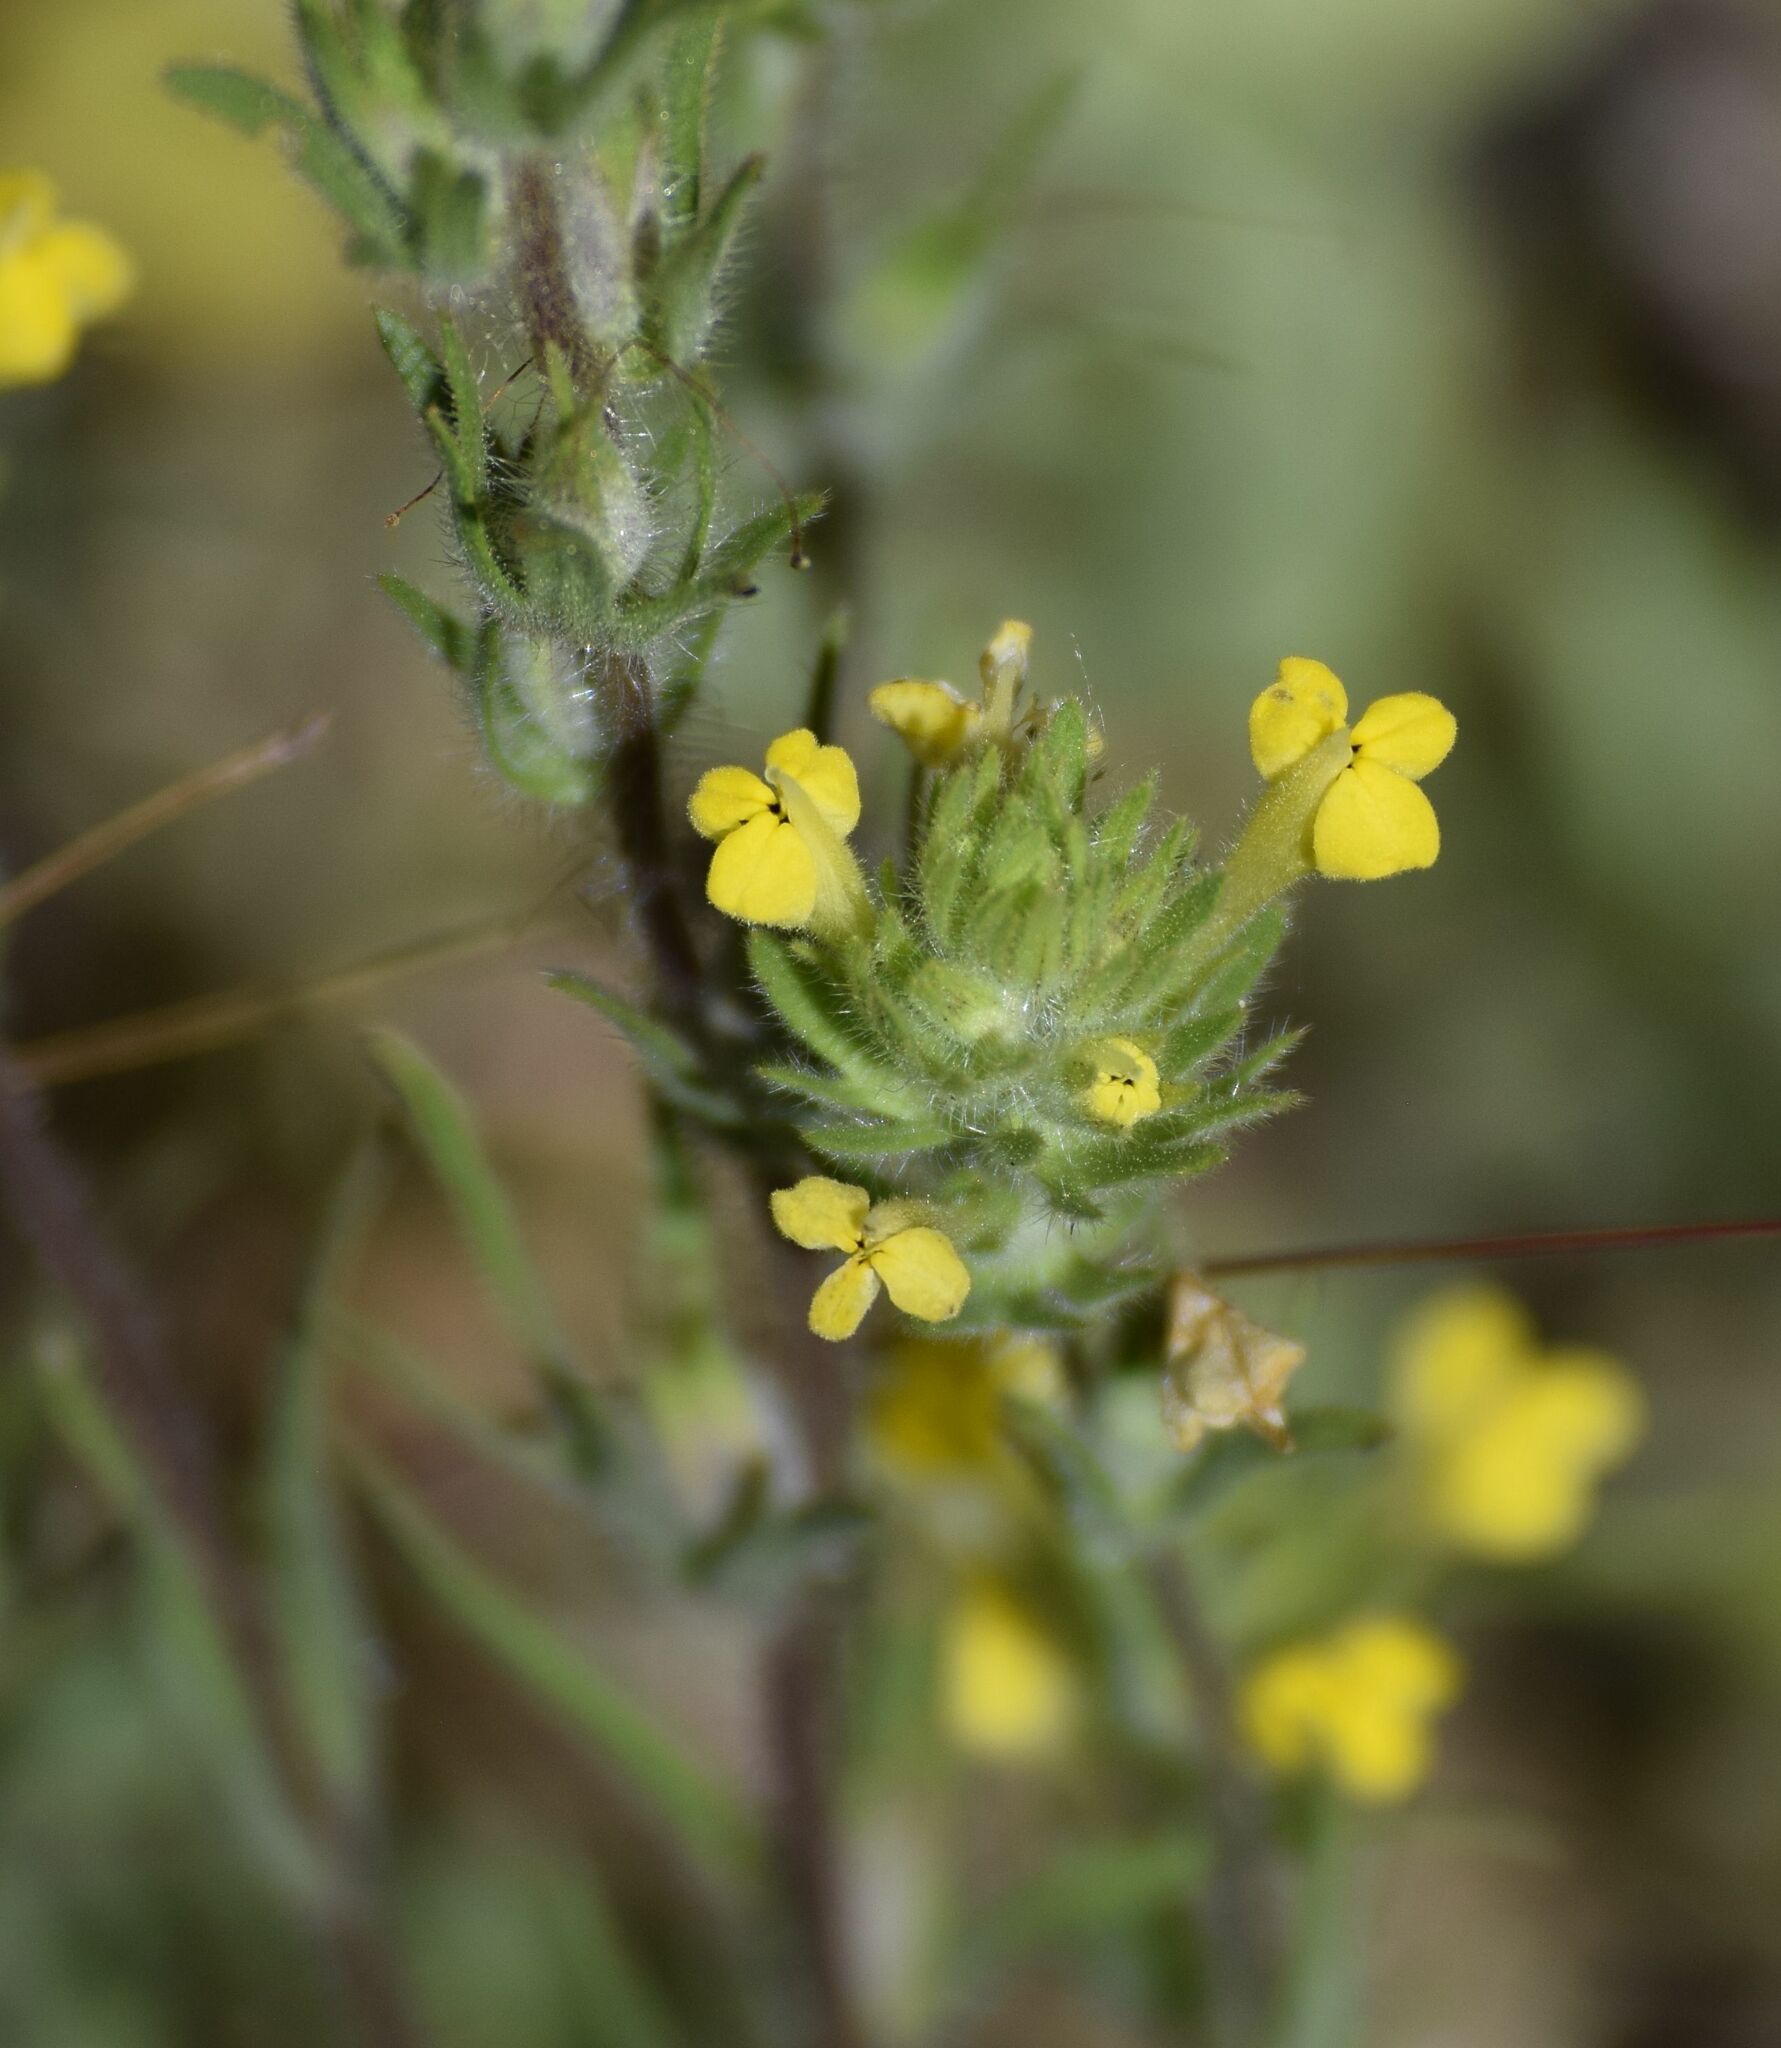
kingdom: Plantae
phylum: Tracheophyta
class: Magnoliopsida
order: Lamiales
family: Orobanchaceae
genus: Castilleja
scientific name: Castilleja lacera
